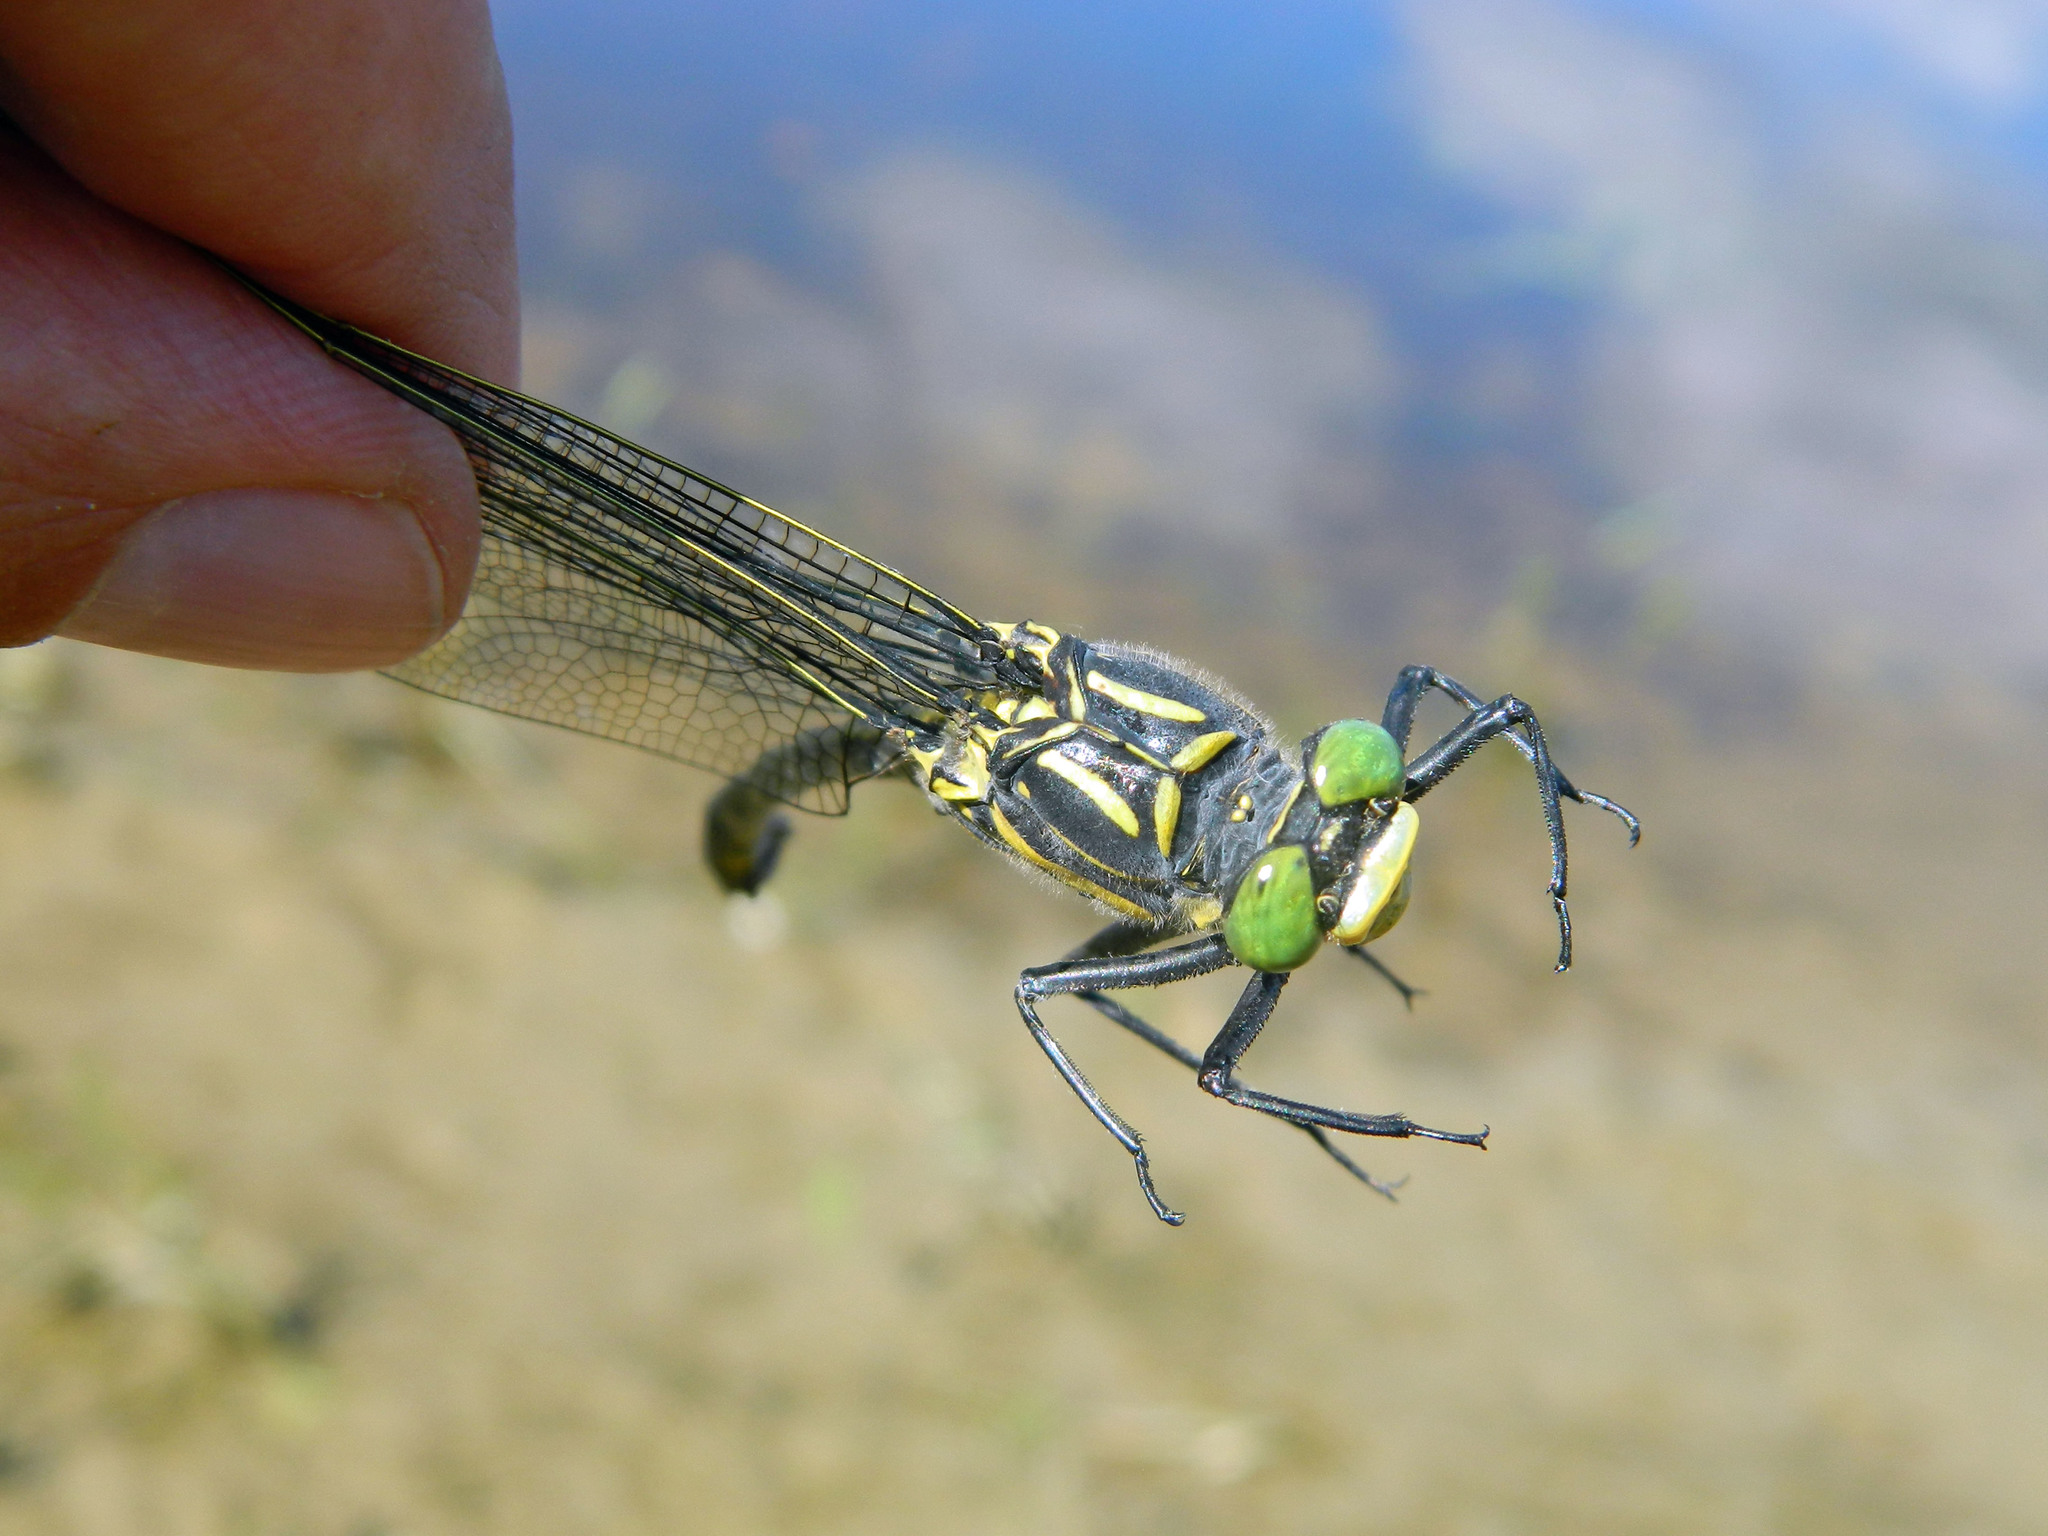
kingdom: Animalia
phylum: Arthropoda
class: Insecta
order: Odonata
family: Gomphidae
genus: Hagenius
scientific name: Hagenius brevistylus
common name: Dragonhunter
